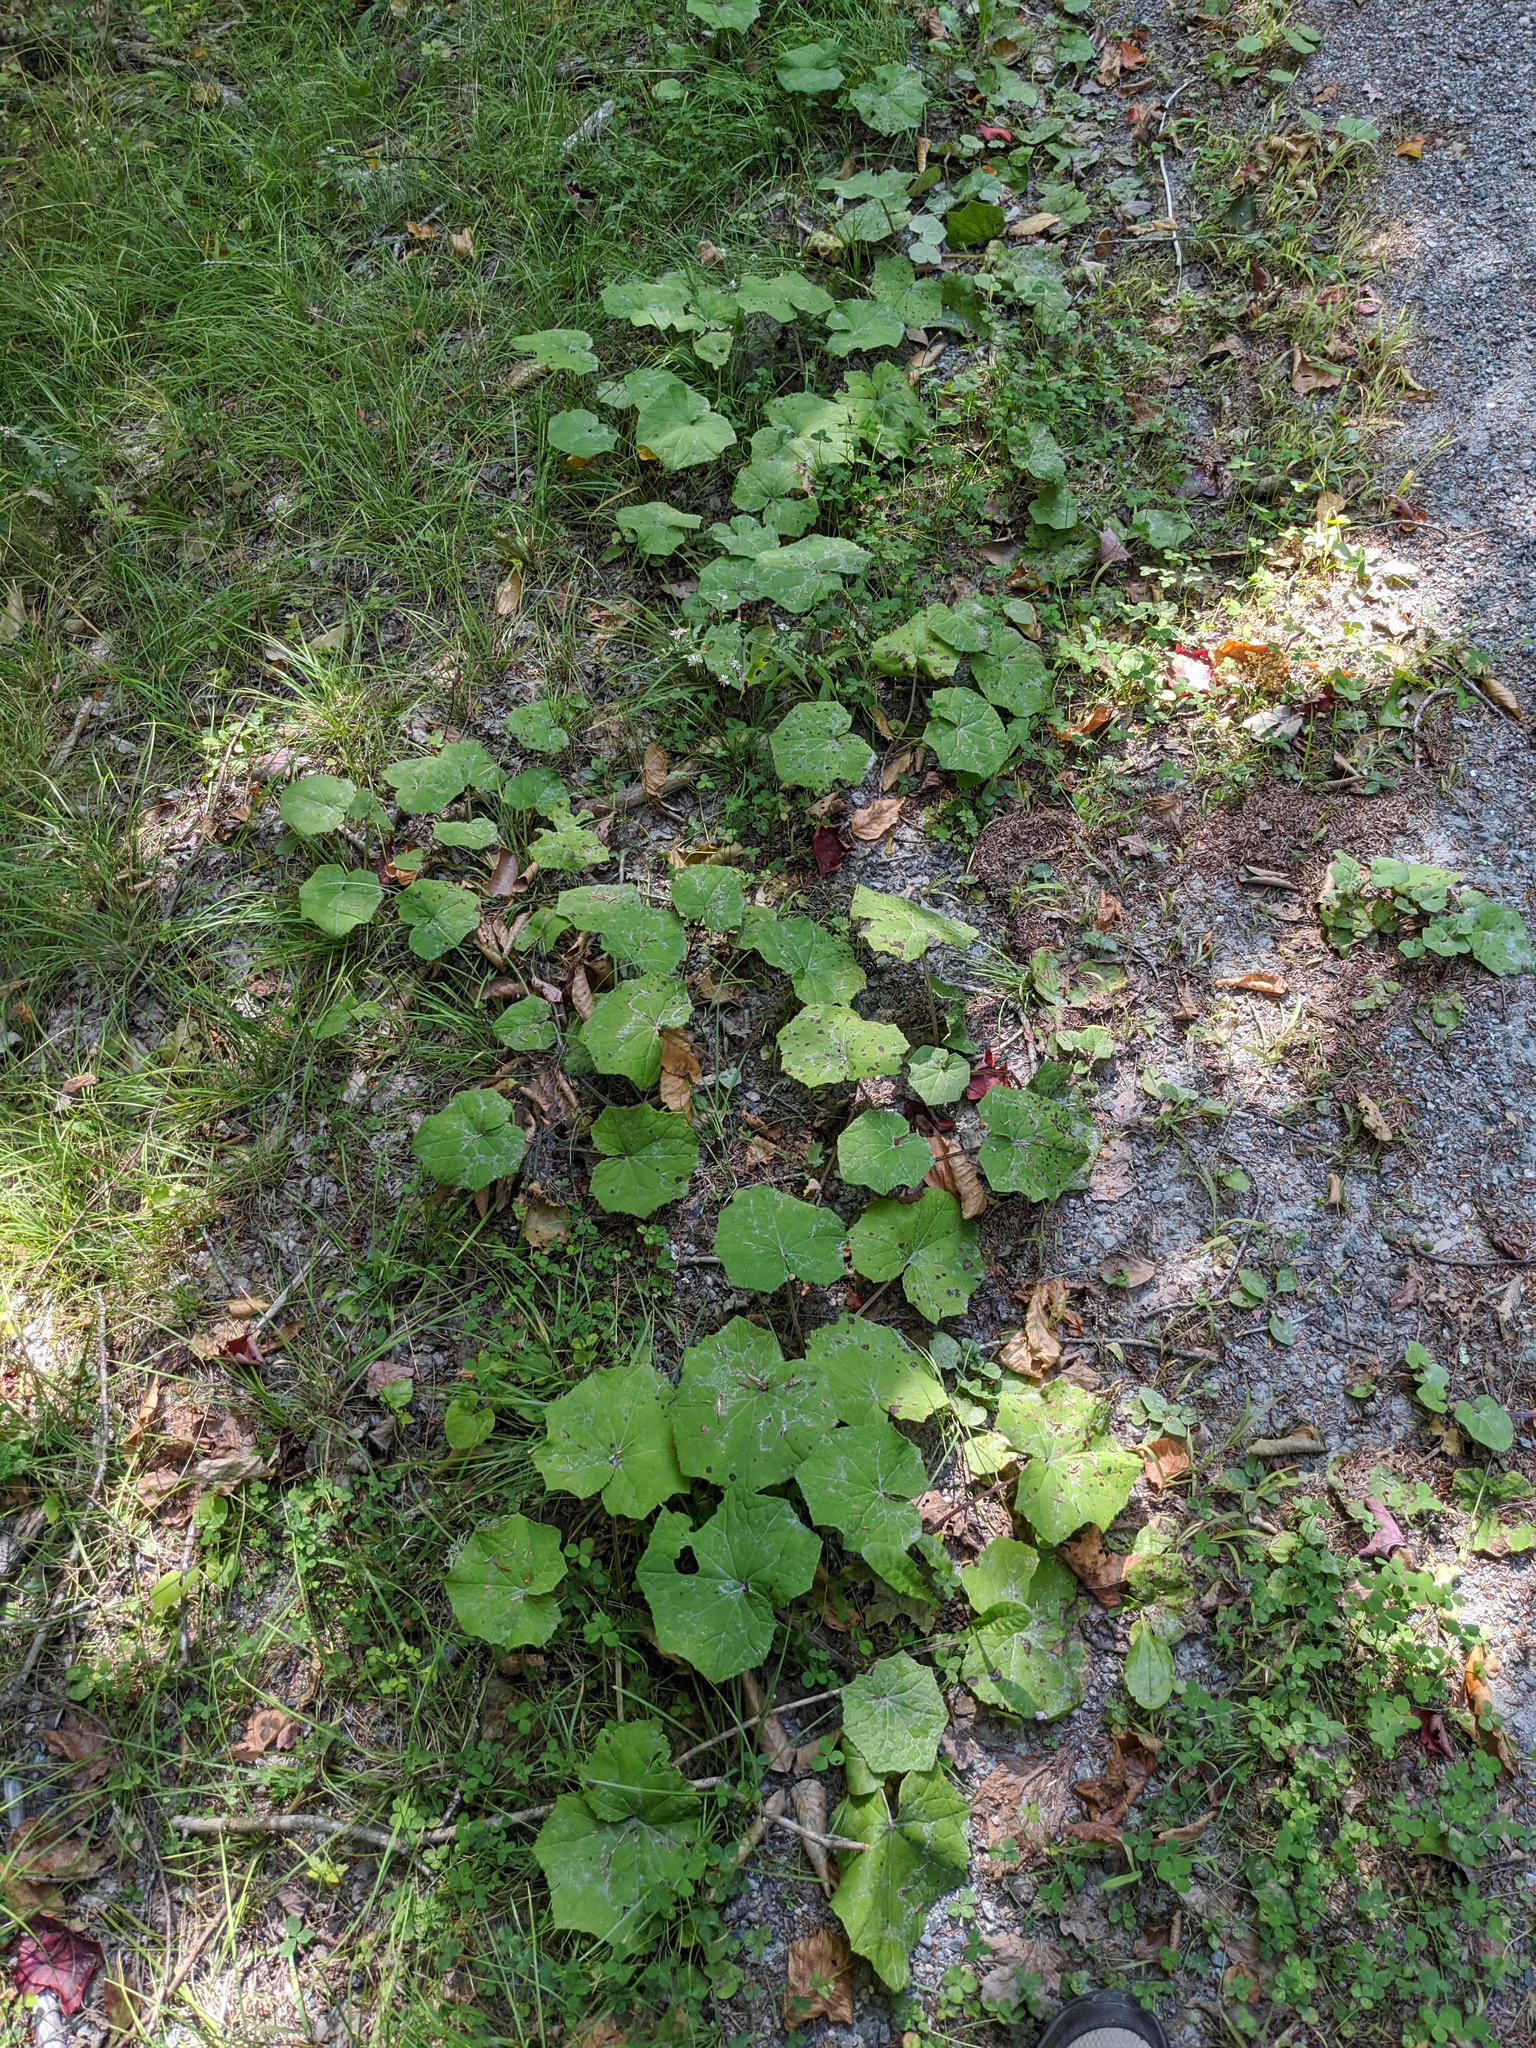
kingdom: Plantae
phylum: Tracheophyta
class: Magnoliopsida
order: Asterales
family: Asteraceae
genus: Tussilago
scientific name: Tussilago farfara
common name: Coltsfoot
